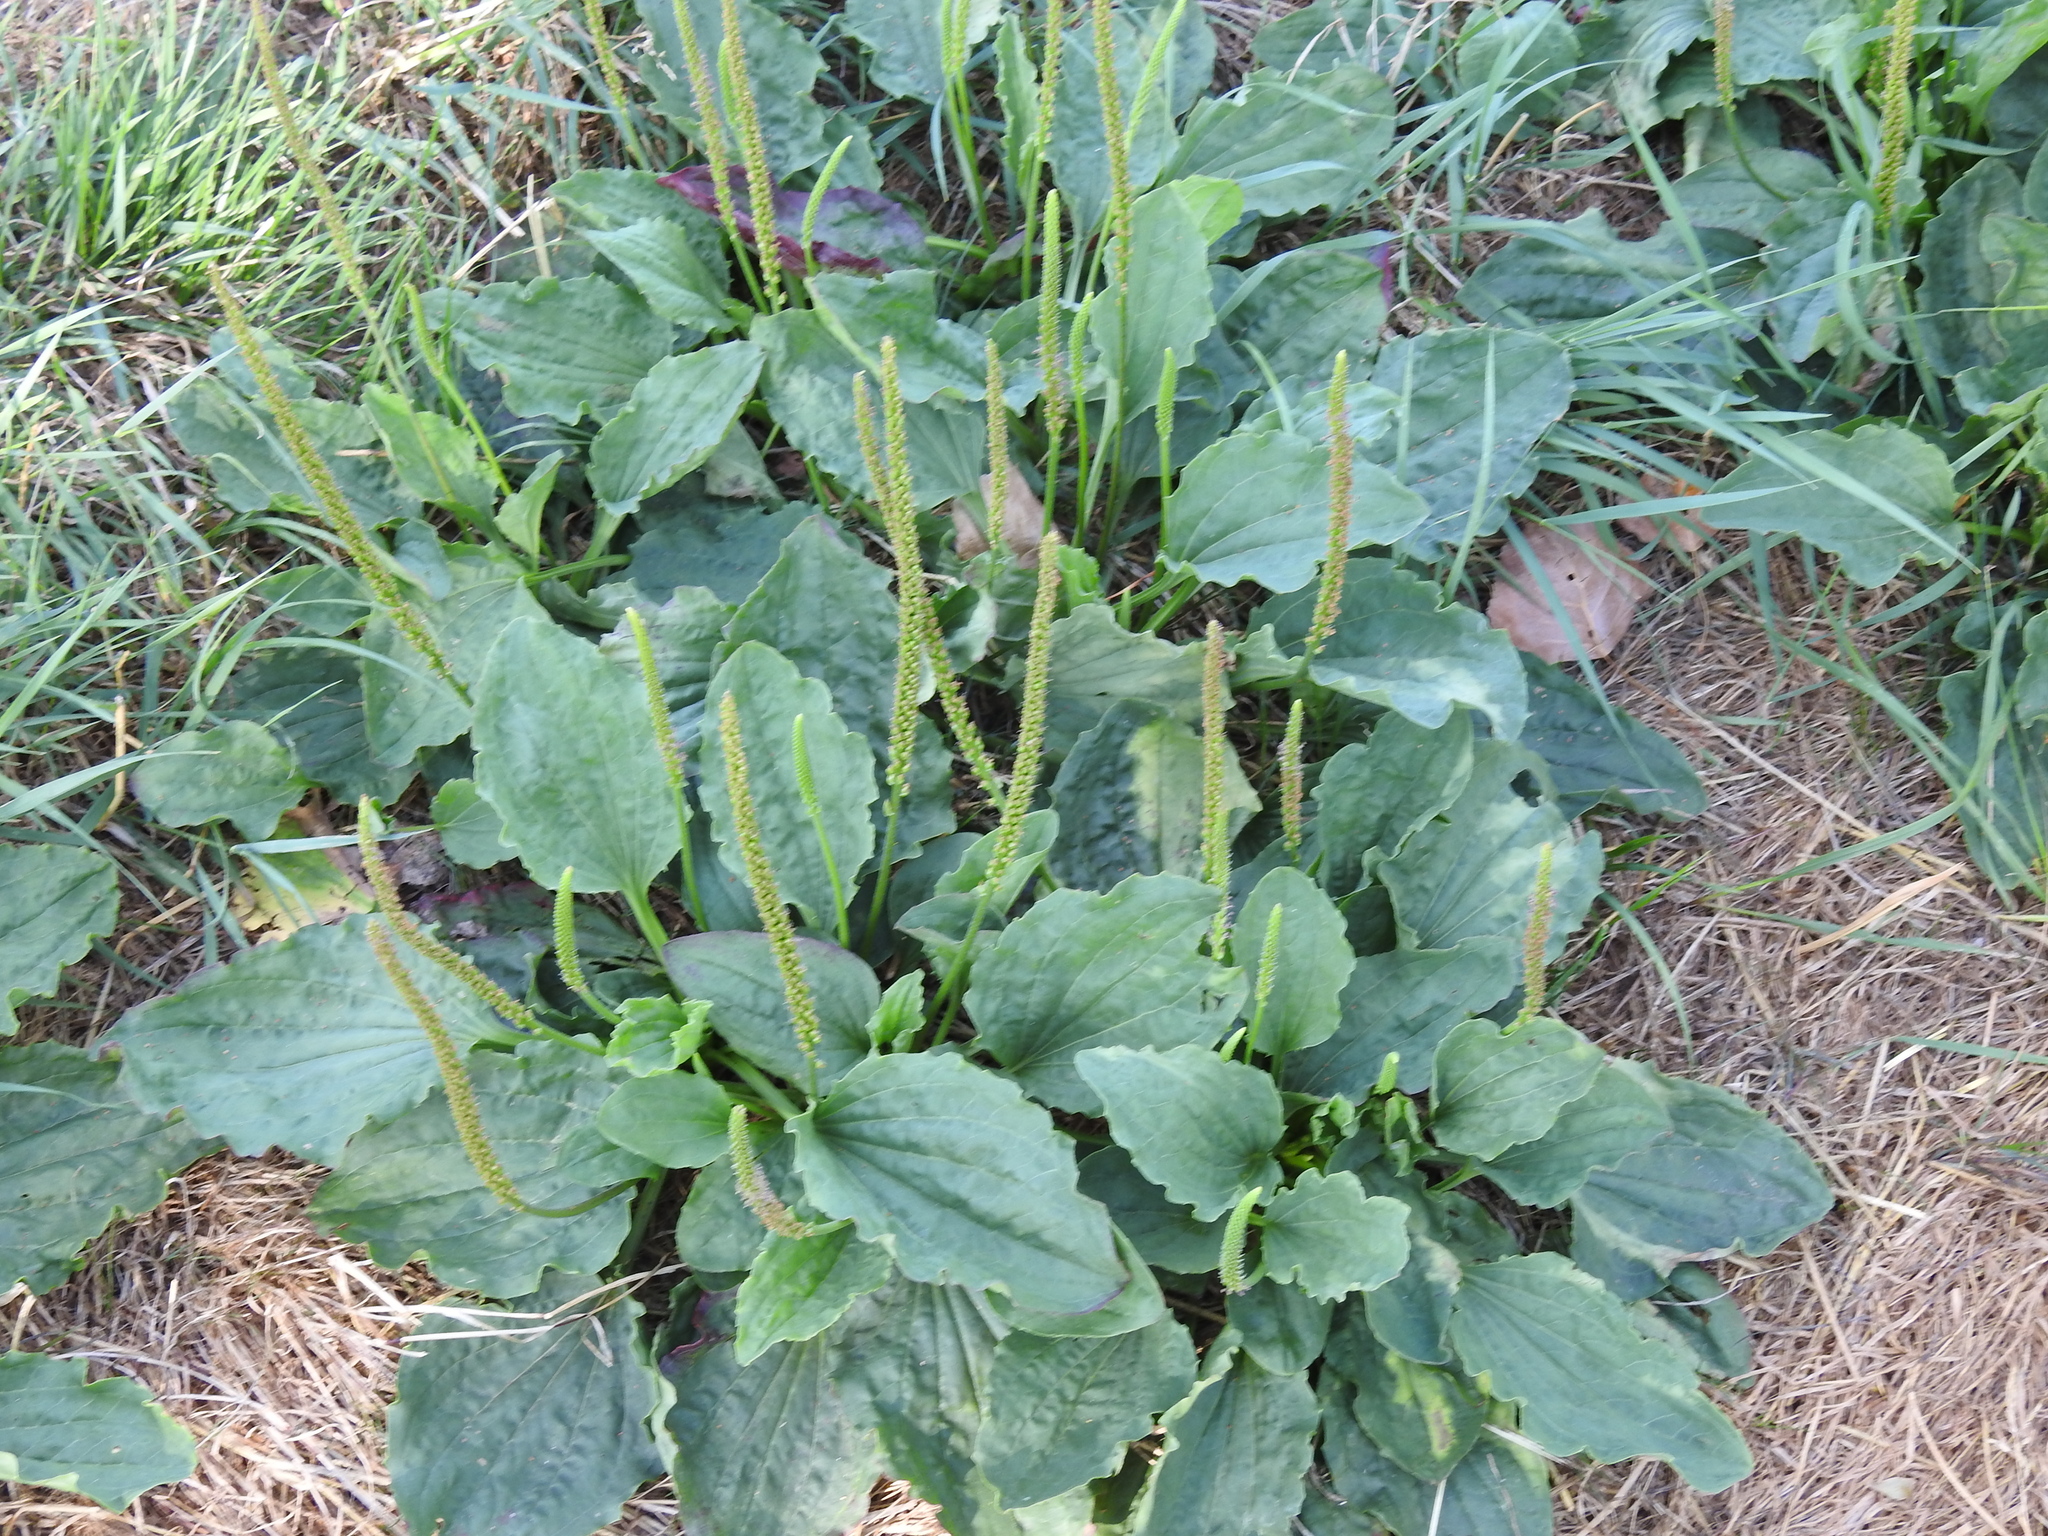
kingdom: Plantae
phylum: Tracheophyta
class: Magnoliopsida
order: Lamiales
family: Plantaginaceae
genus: Plantago
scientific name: Plantago major
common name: Common plantain
